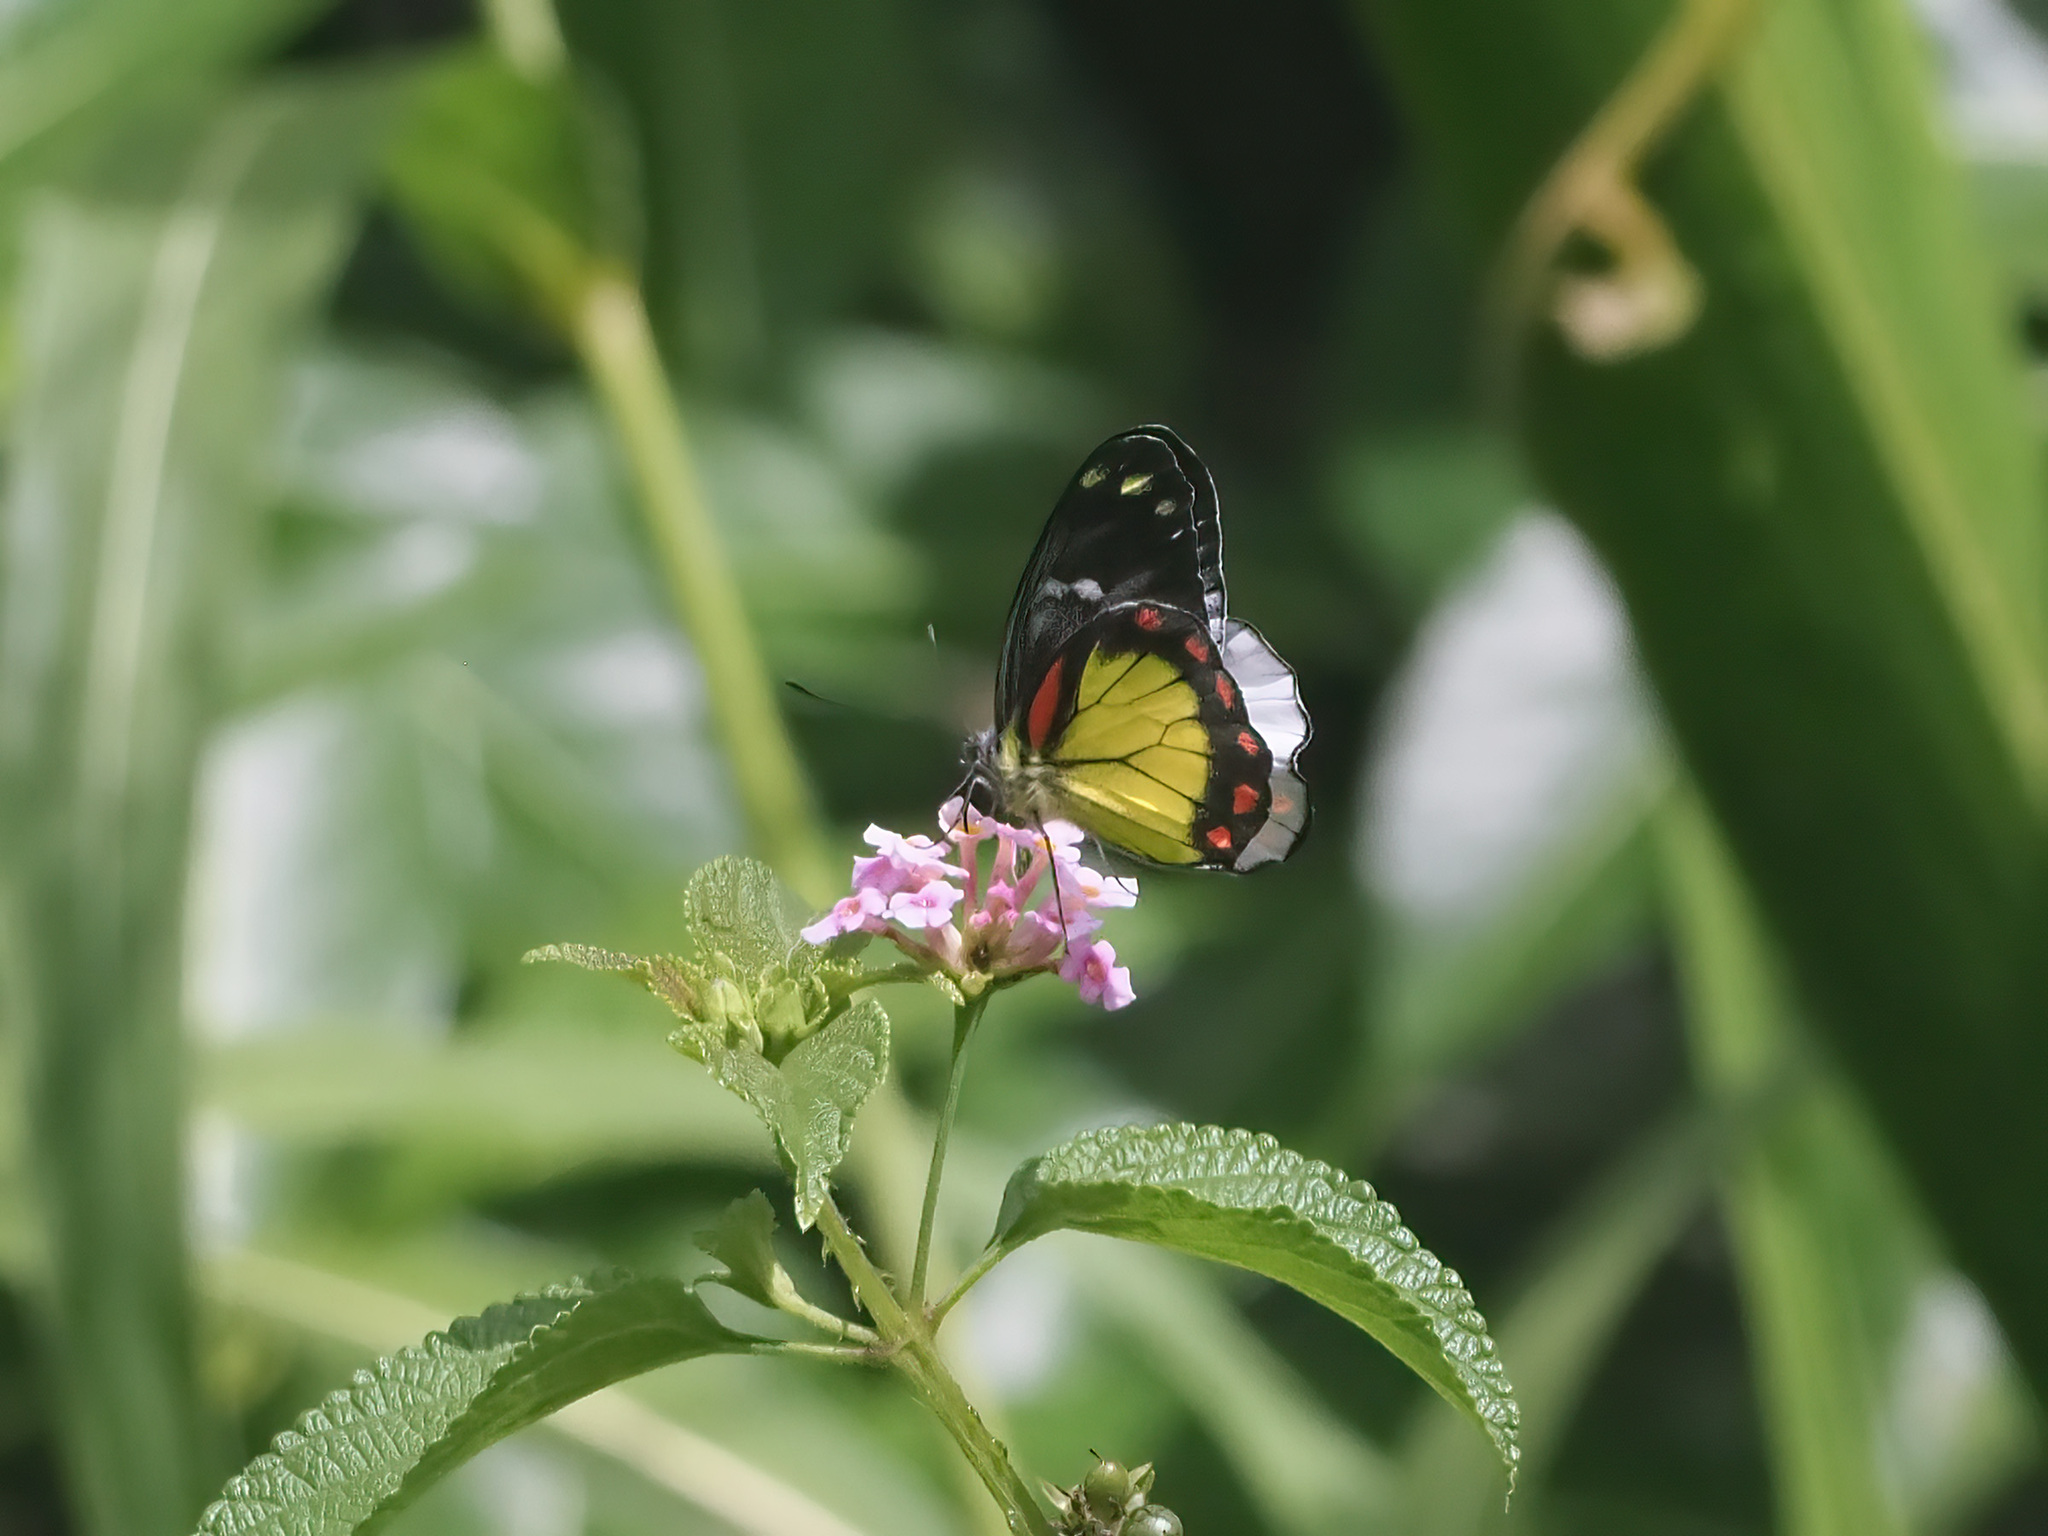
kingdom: Animalia
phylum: Arthropoda
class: Insecta
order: Lepidoptera
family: Pieridae
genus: Delias
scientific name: Delias eumolpe
